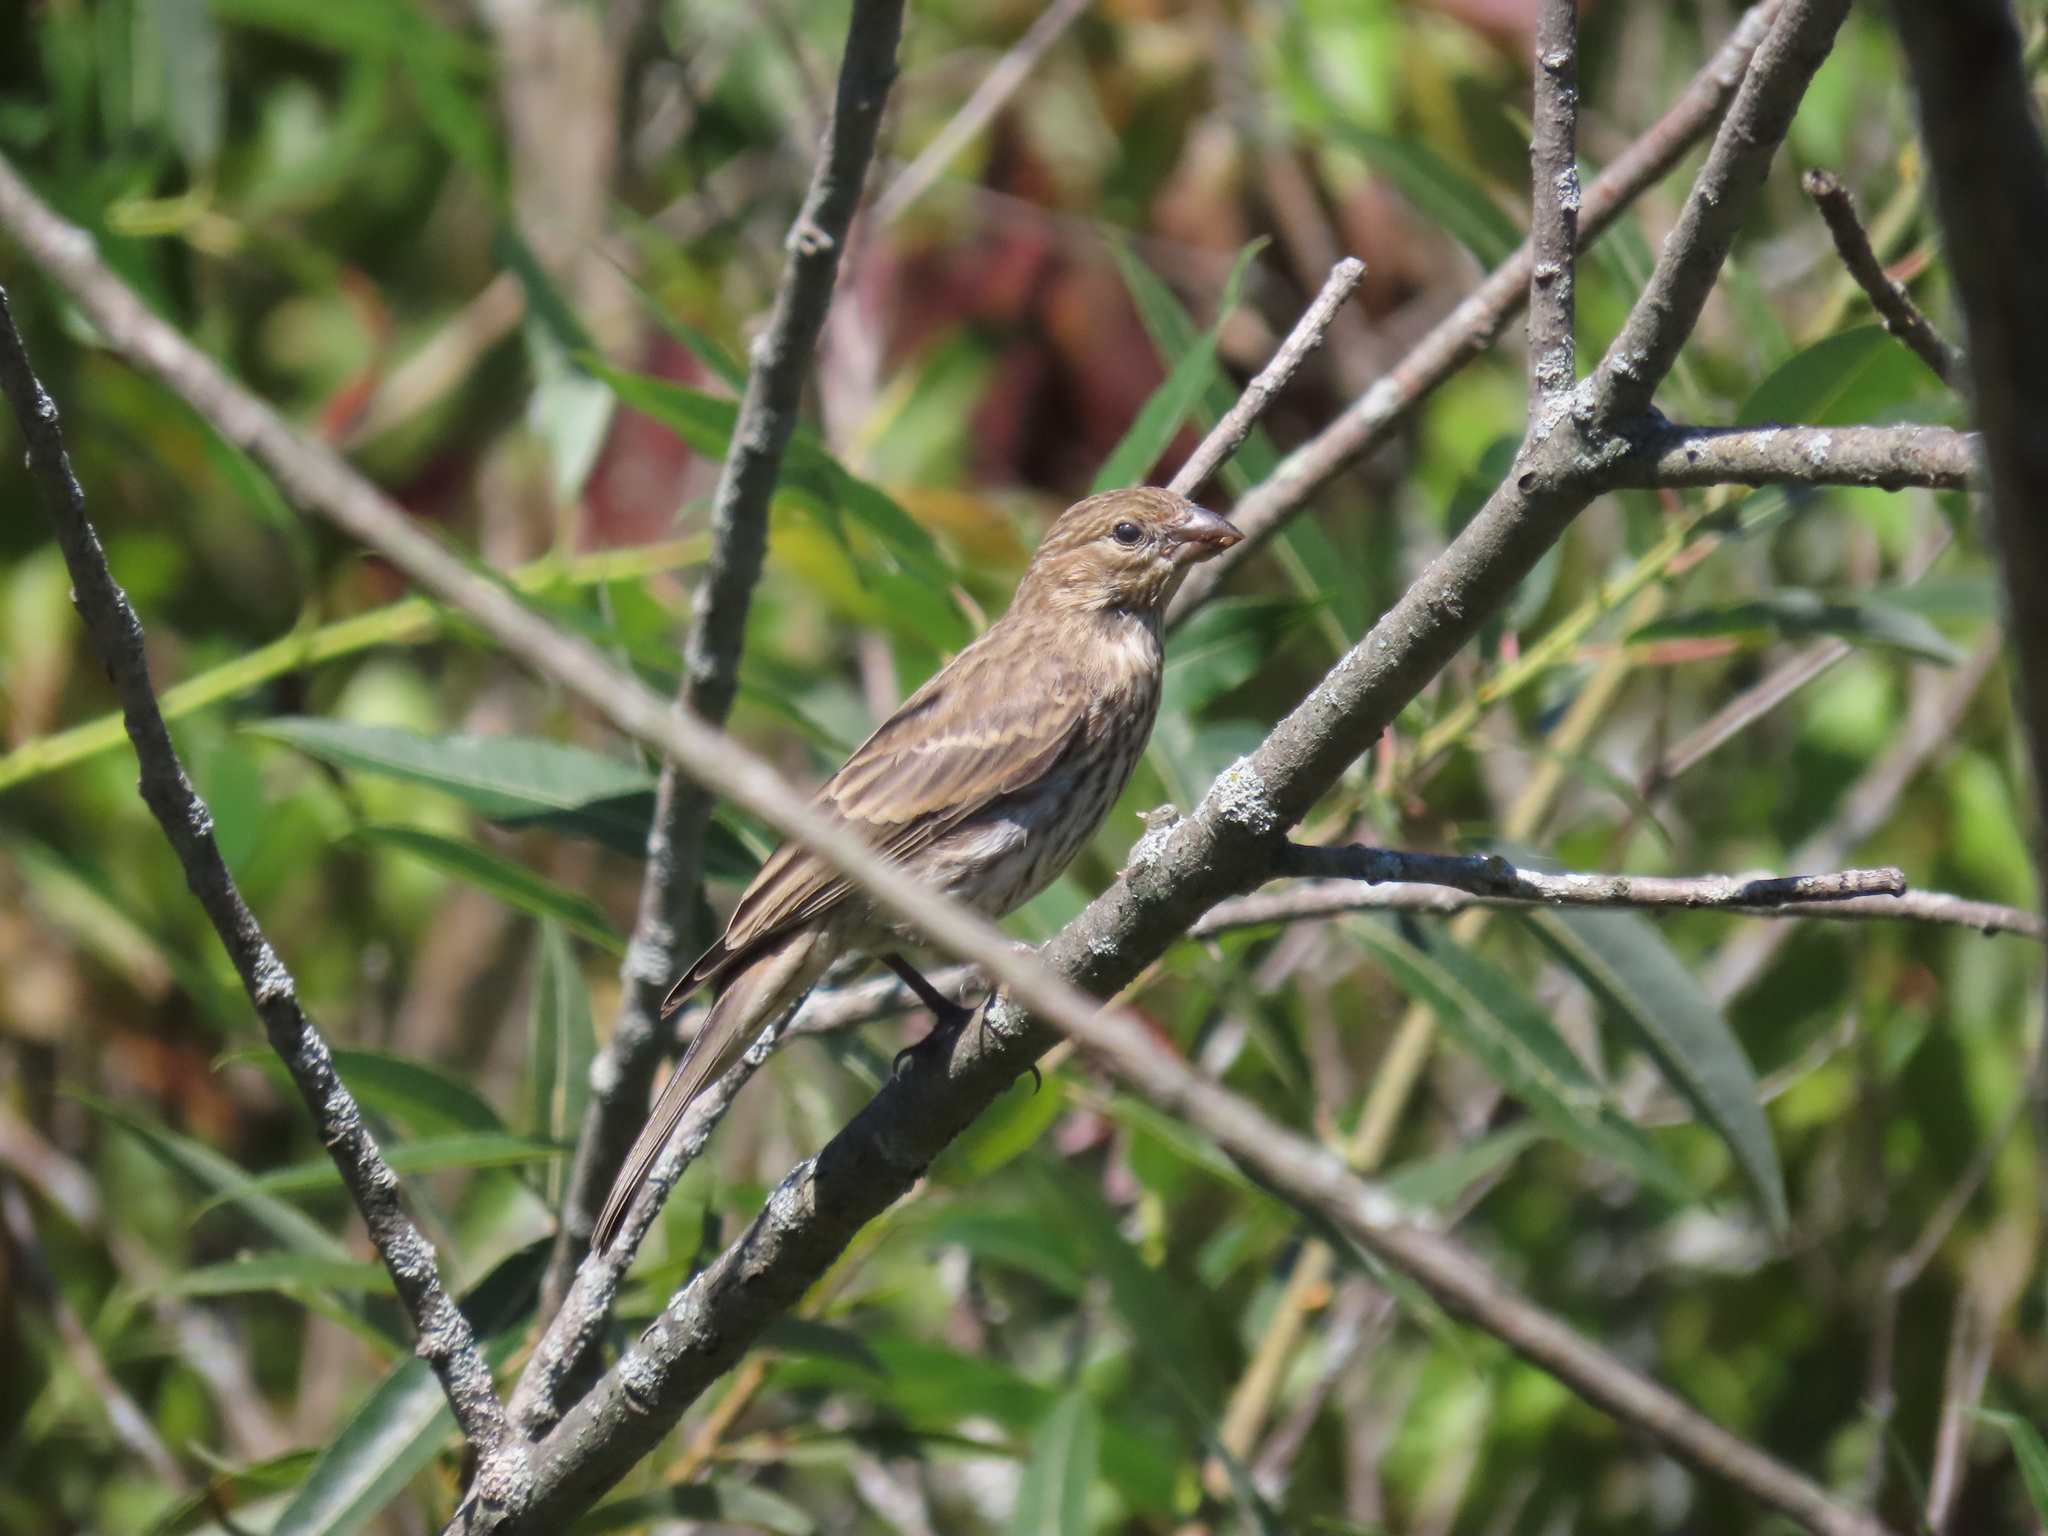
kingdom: Animalia
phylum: Chordata
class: Aves
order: Passeriformes
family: Fringillidae
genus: Haemorhous
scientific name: Haemorhous mexicanus
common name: House finch
